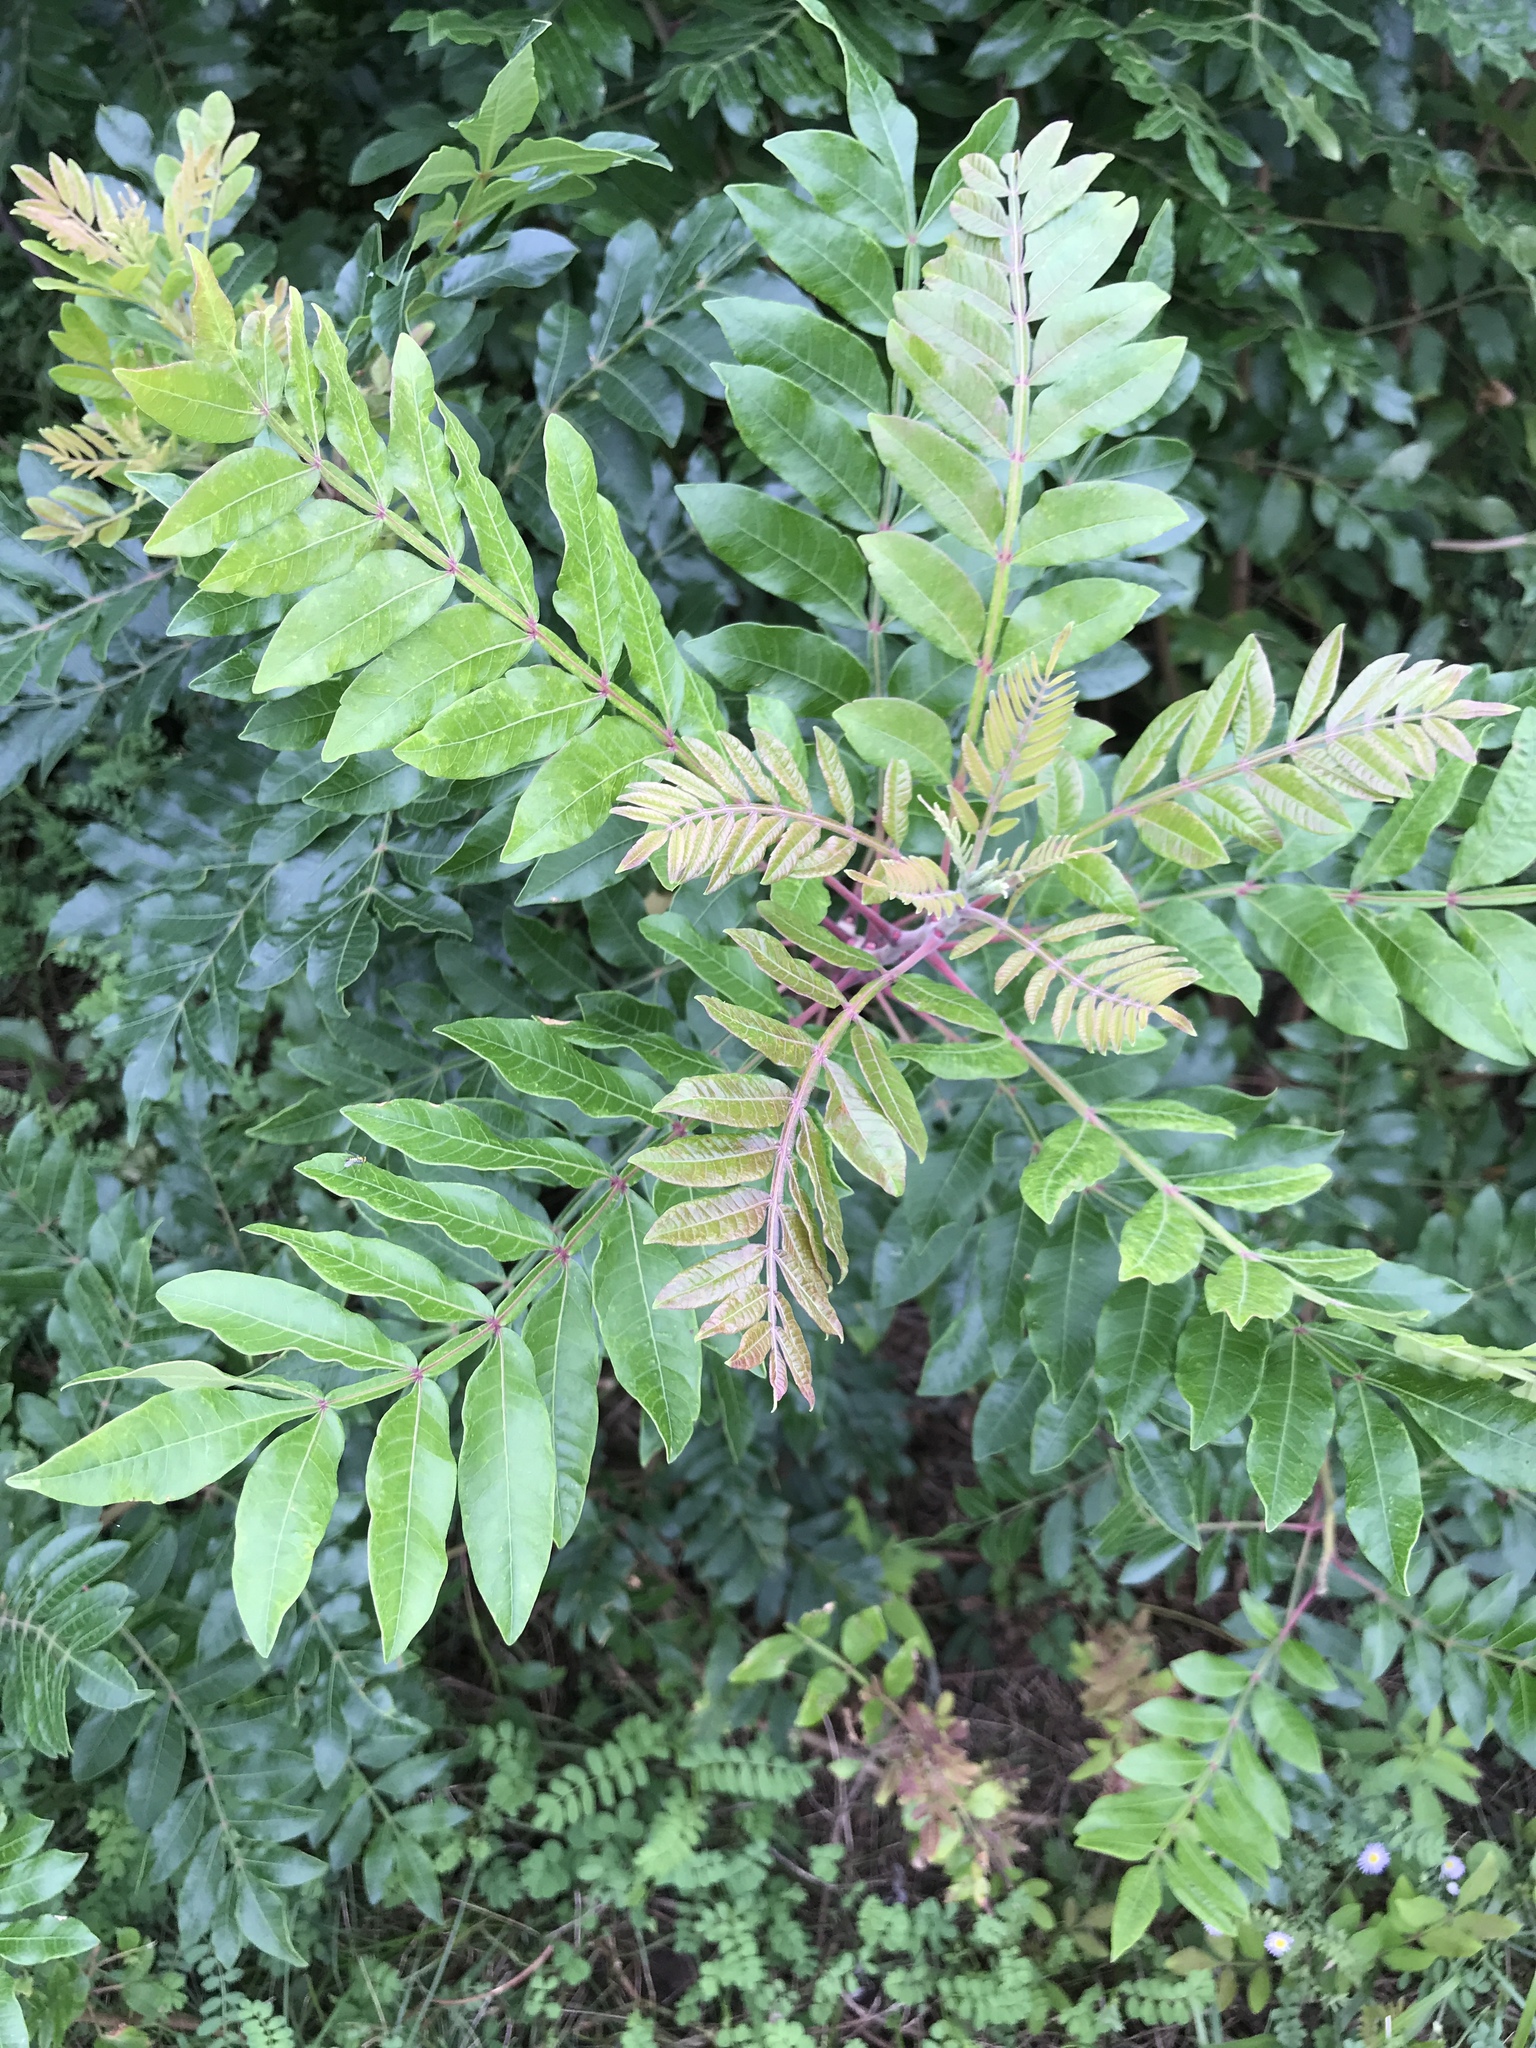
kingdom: Plantae
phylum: Tracheophyta
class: Magnoliopsida
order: Sapindales
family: Anacardiaceae
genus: Rhus
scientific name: Rhus copallina
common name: Shining sumac
